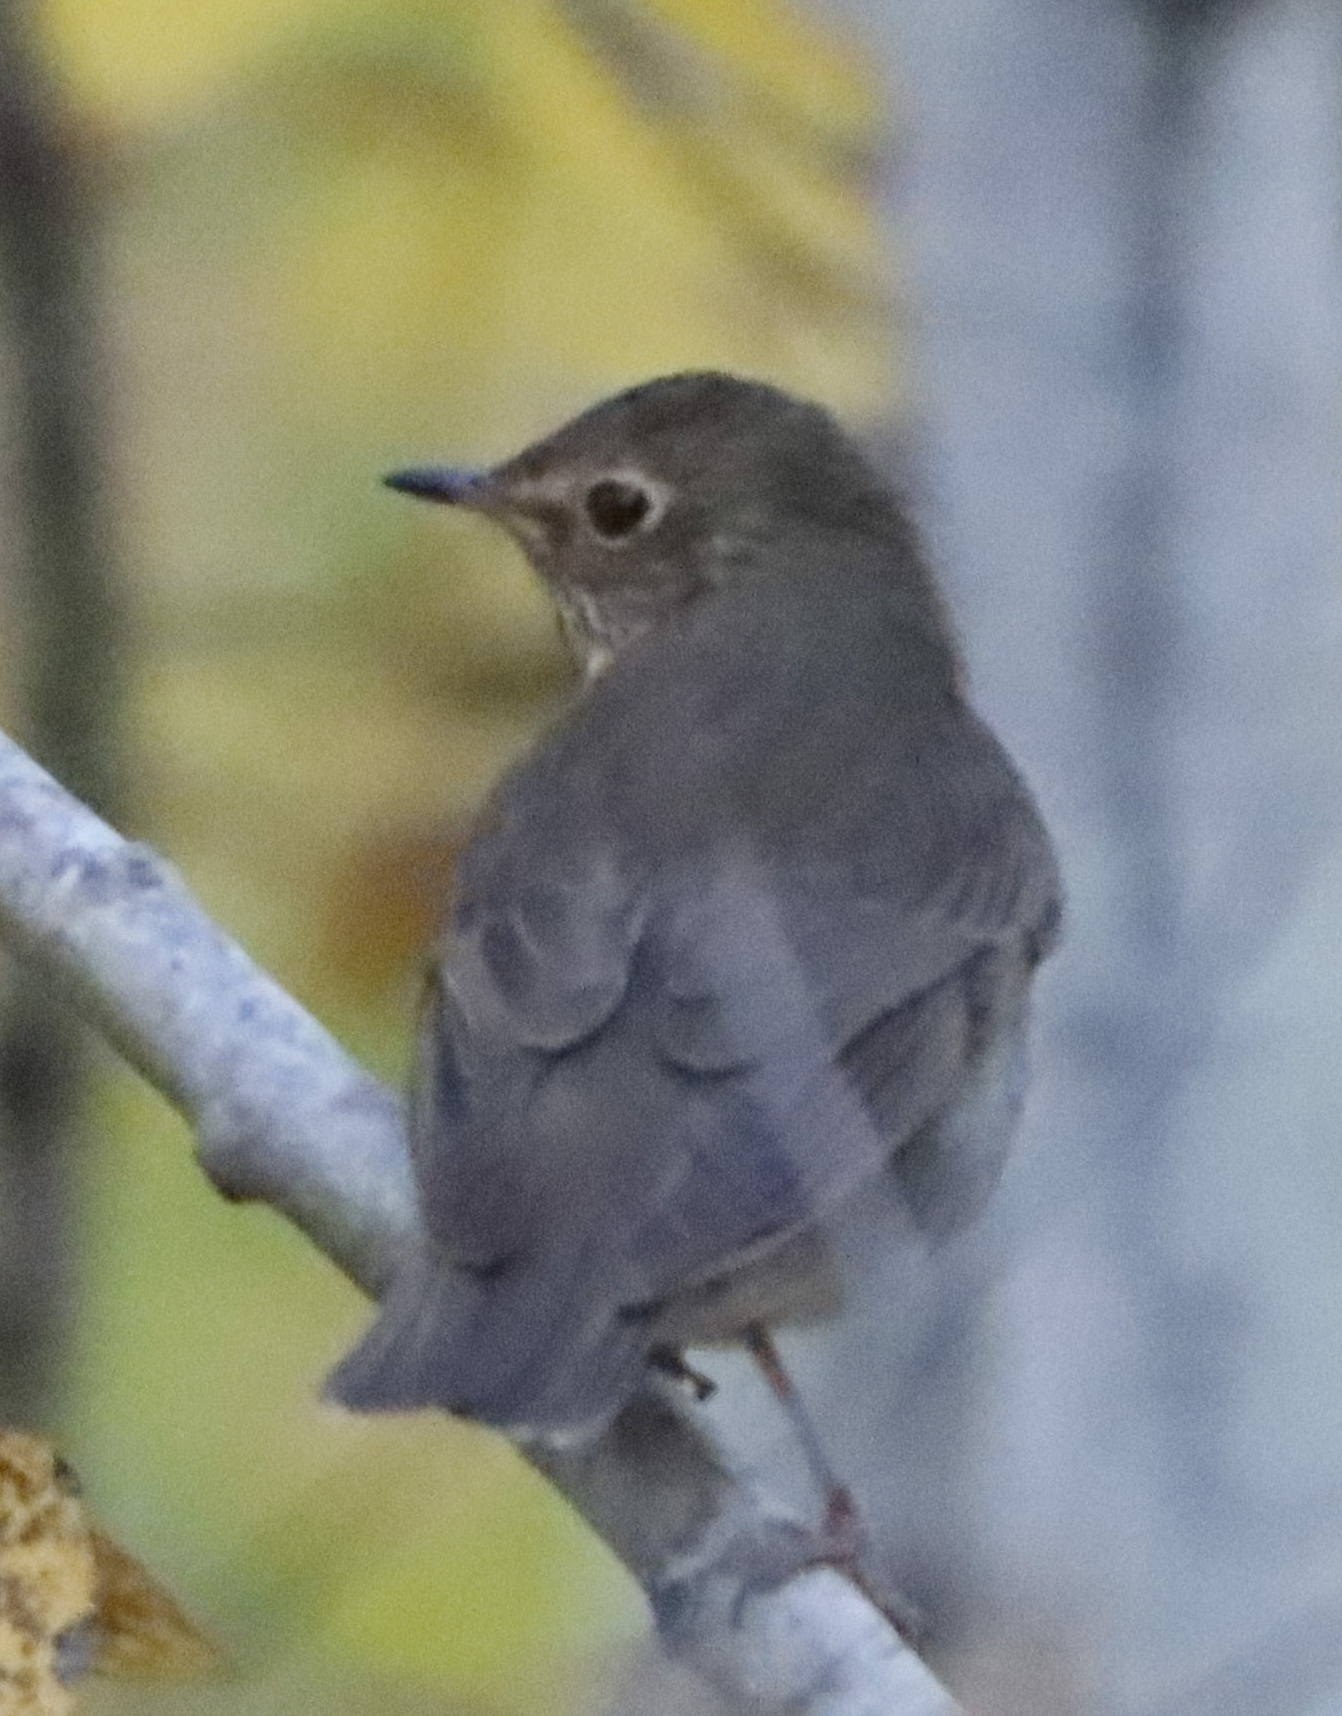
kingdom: Animalia
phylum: Chordata
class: Aves
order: Passeriformes
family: Turdidae
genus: Catharus
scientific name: Catharus ustulatus
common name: Swainson's thrush
